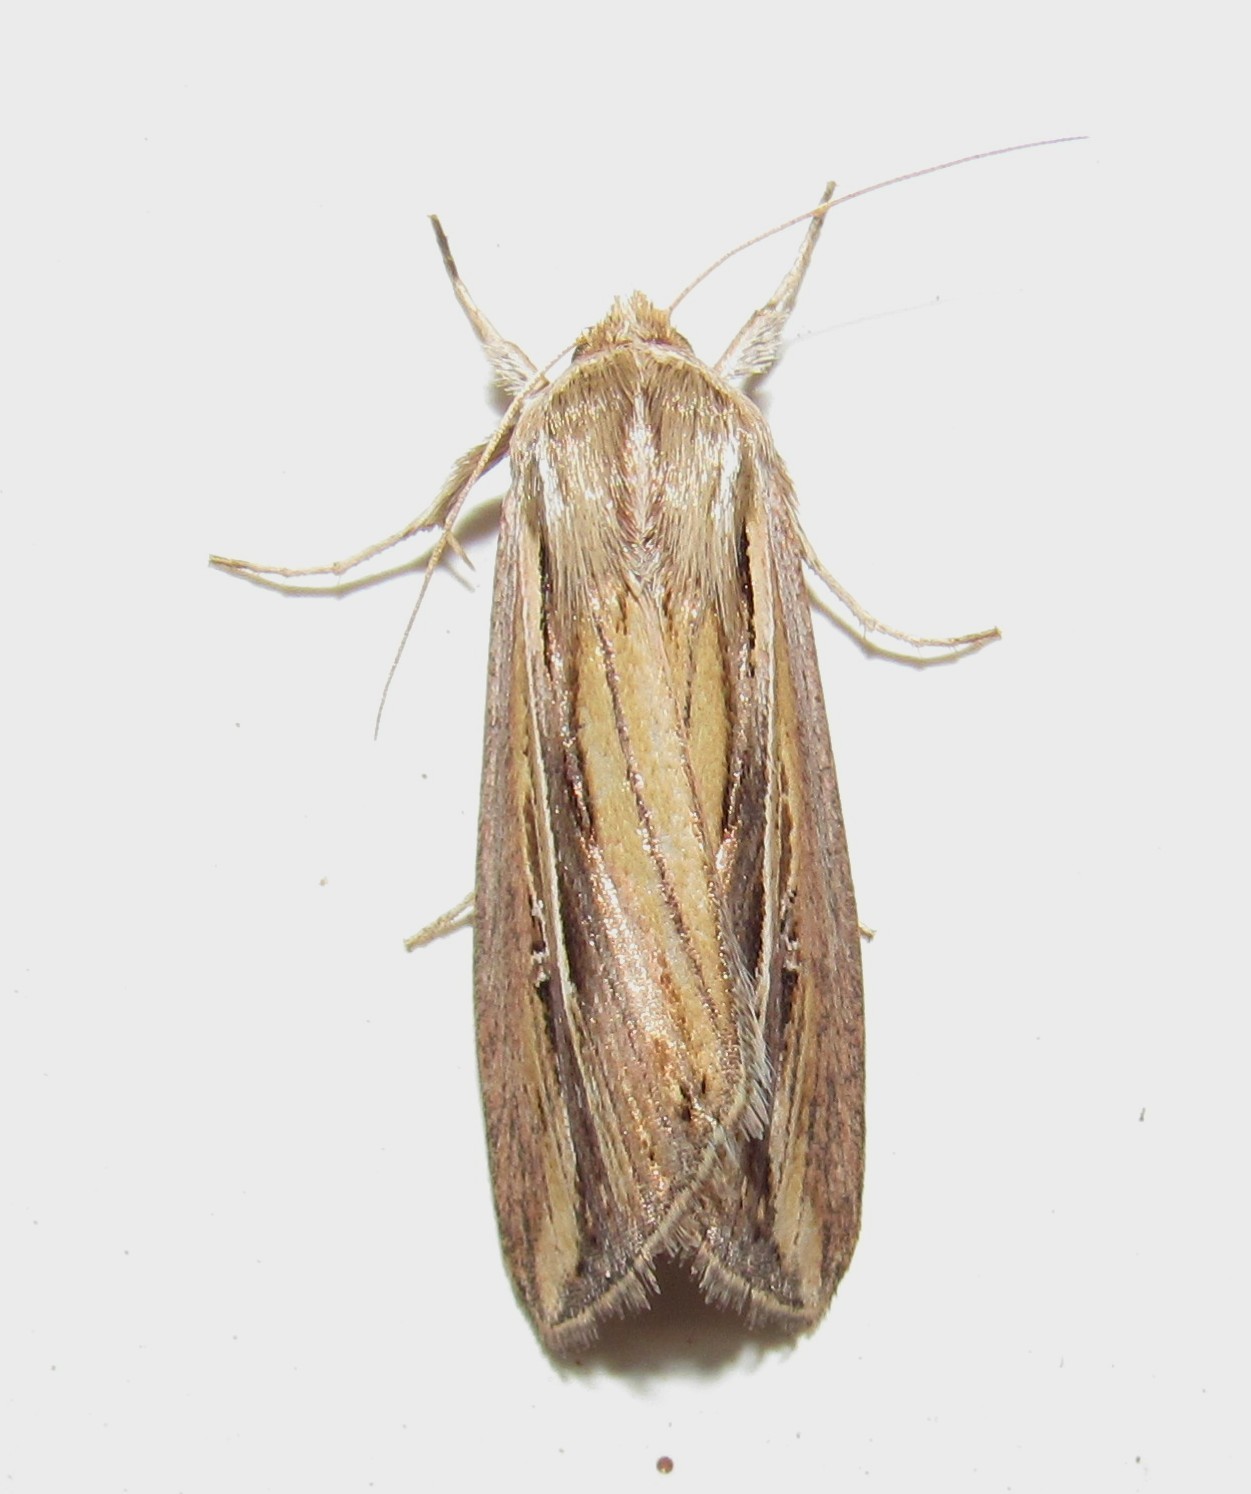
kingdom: Animalia
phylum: Arthropoda
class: Insecta
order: Lepidoptera
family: Noctuidae
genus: Dargida
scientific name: Dargida albilinea
